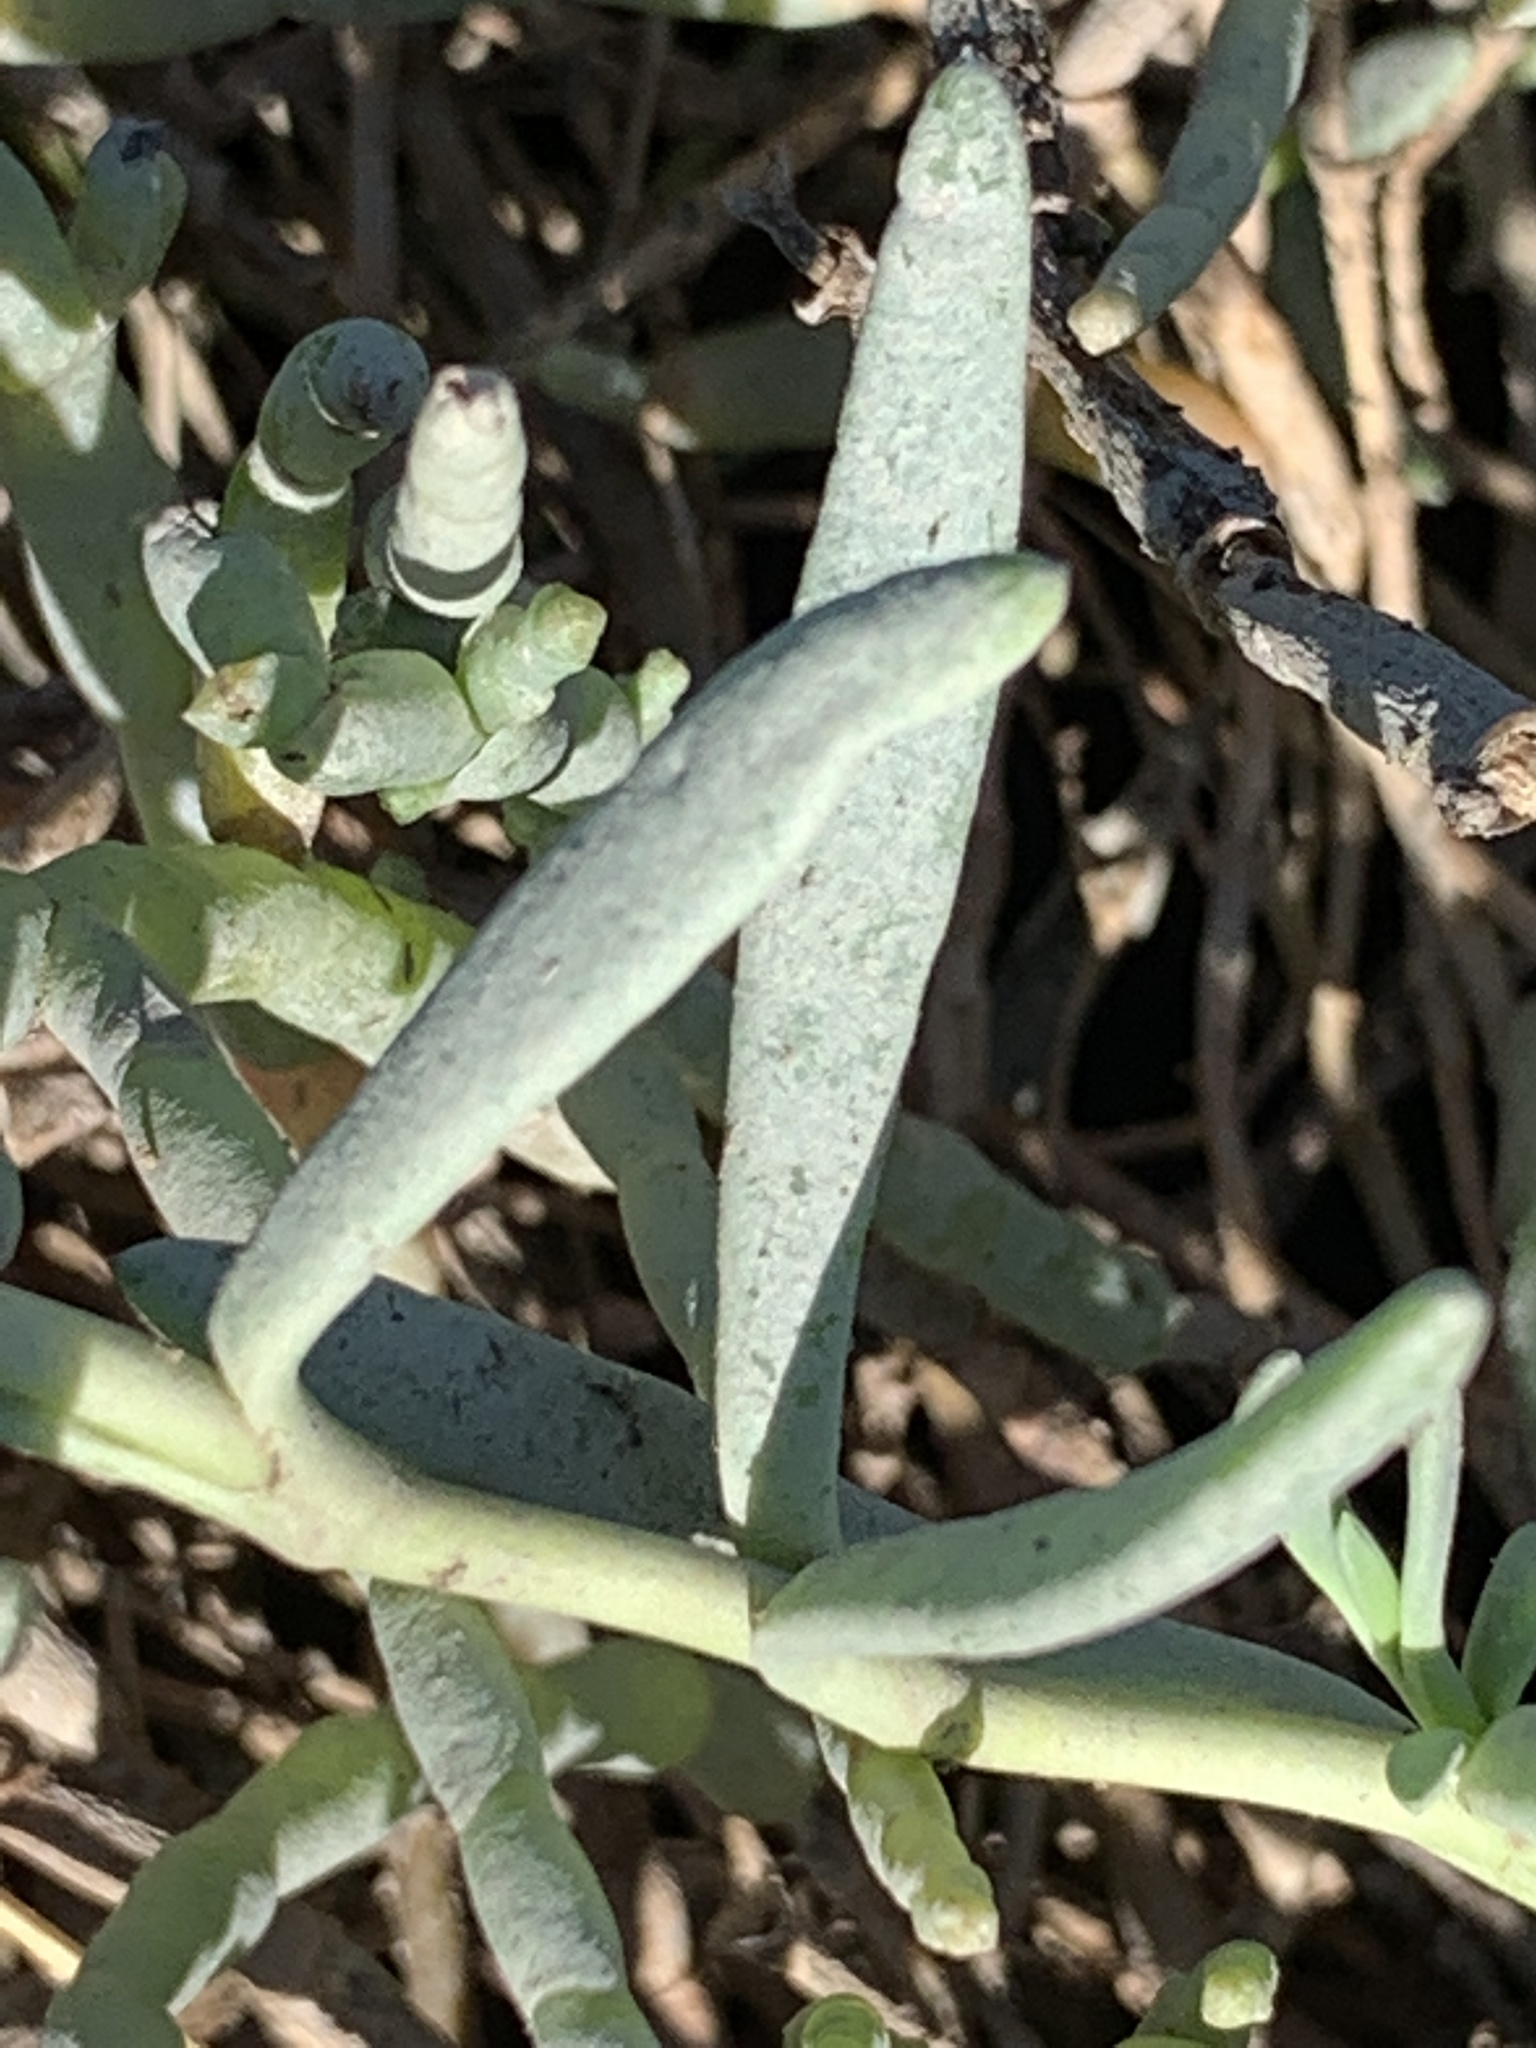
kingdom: Plantae
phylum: Tracheophyta
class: Magnoliopsida
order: Asterales
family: Asteraceae
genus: Jaumea
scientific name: Jaumea carnosa
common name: Fleshy jaumea
